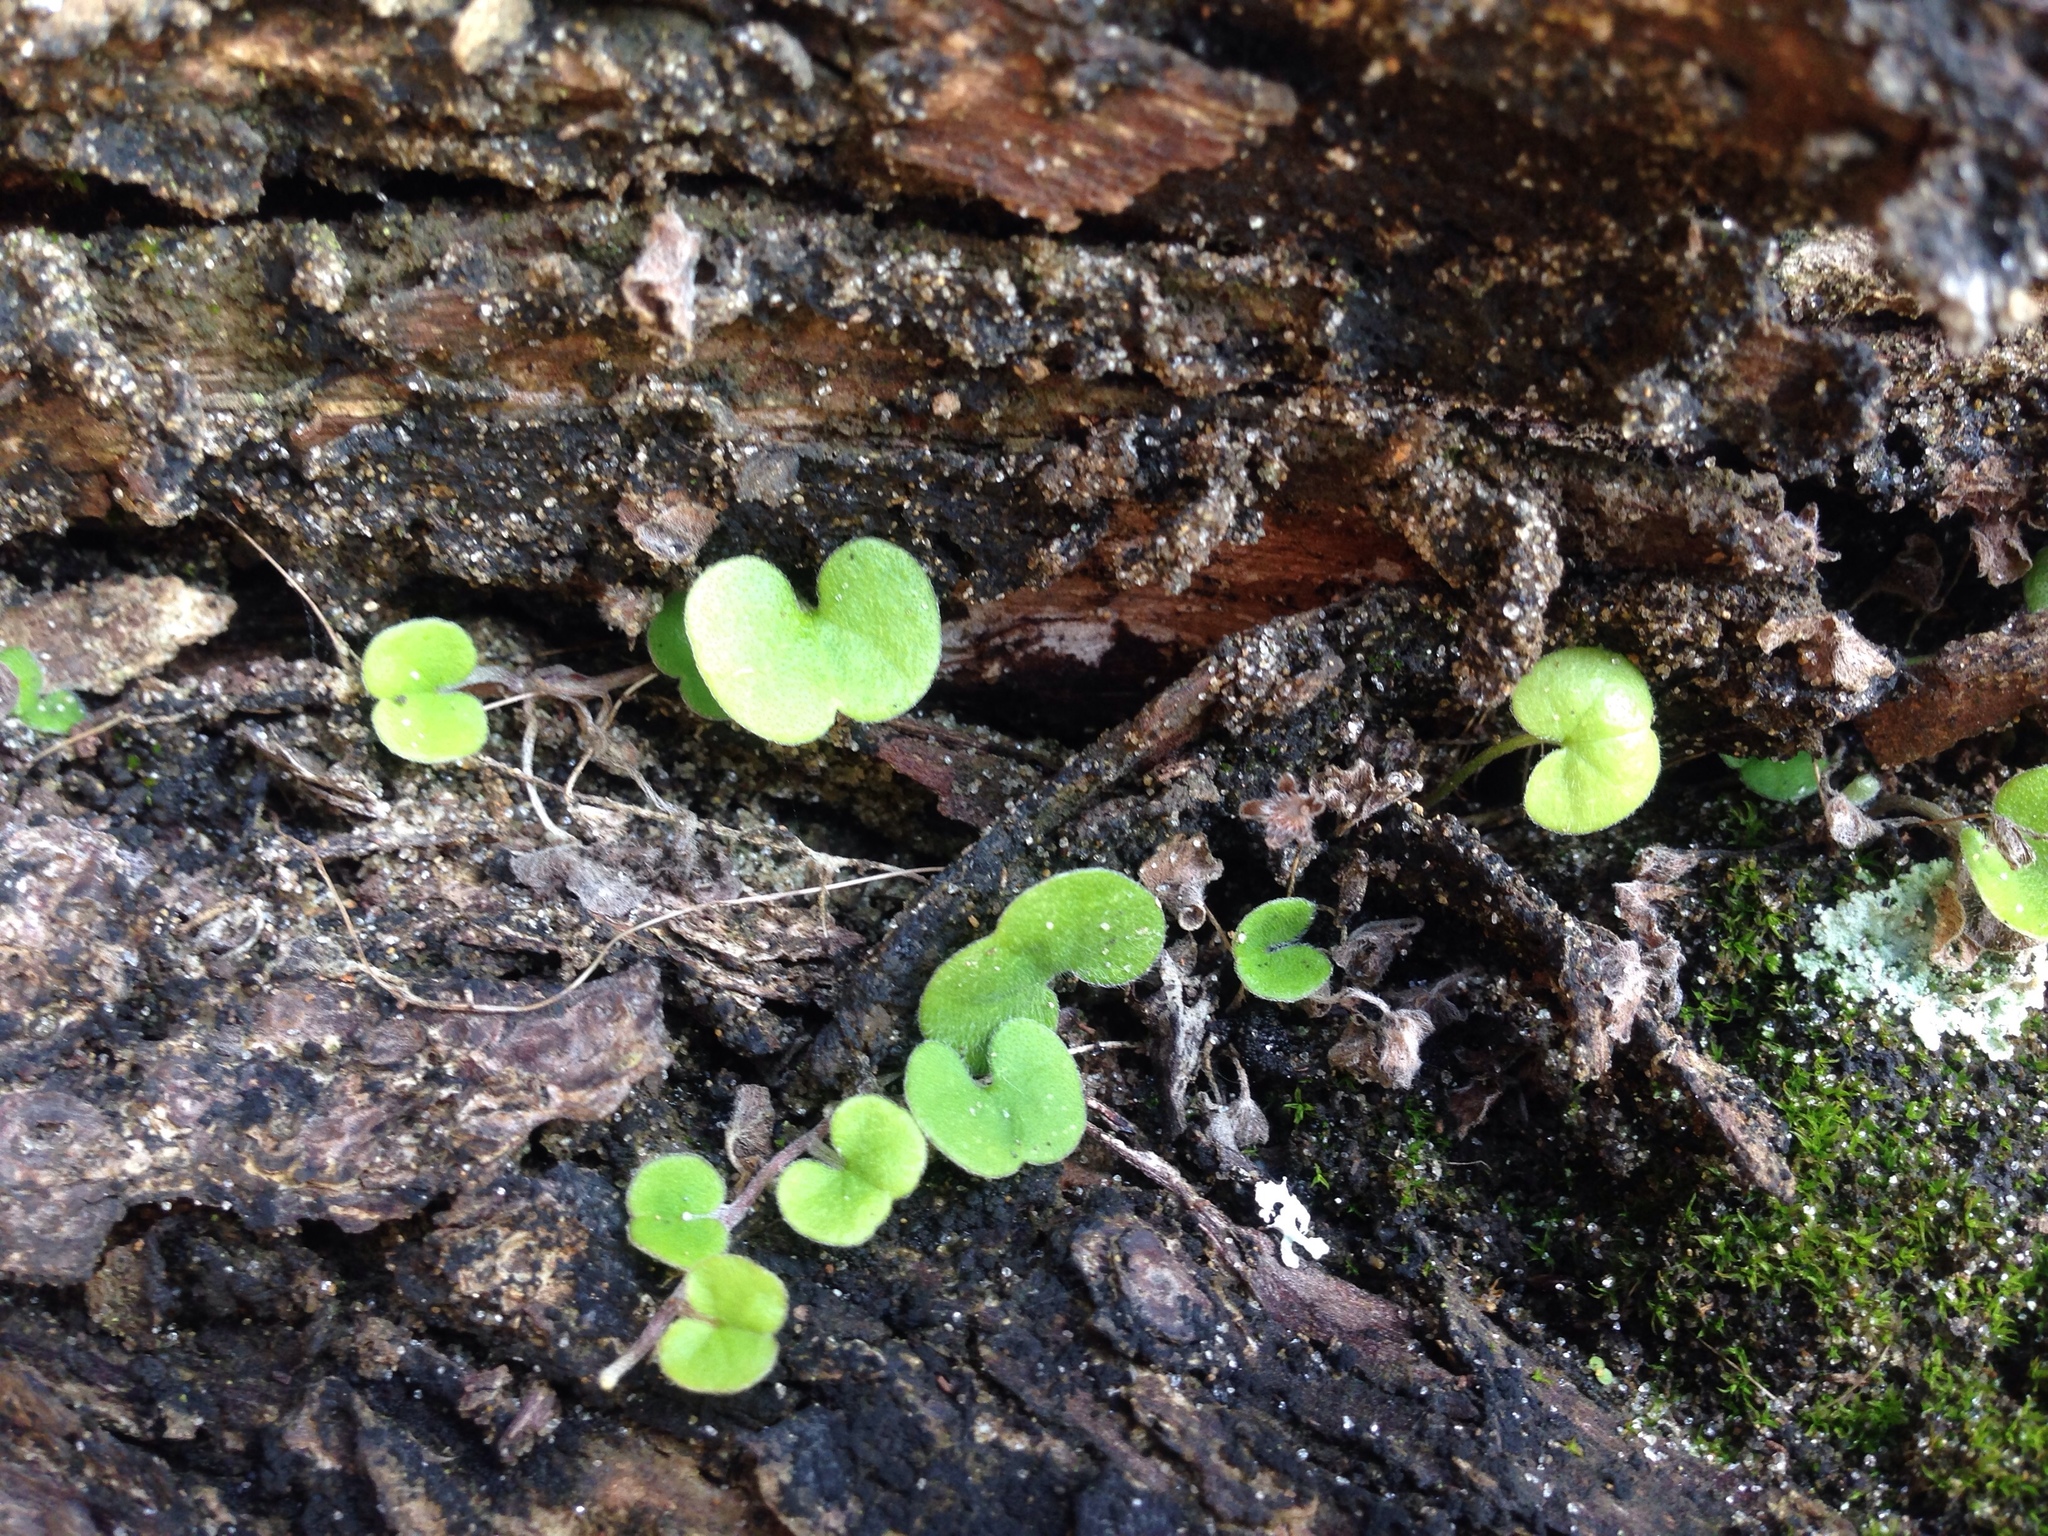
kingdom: Plantae
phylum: Tracheophyta
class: Magnoliopsida
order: Solanales
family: Convolvulaceae
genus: Dichondra
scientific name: Dichondra repens
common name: Kidneyweed
